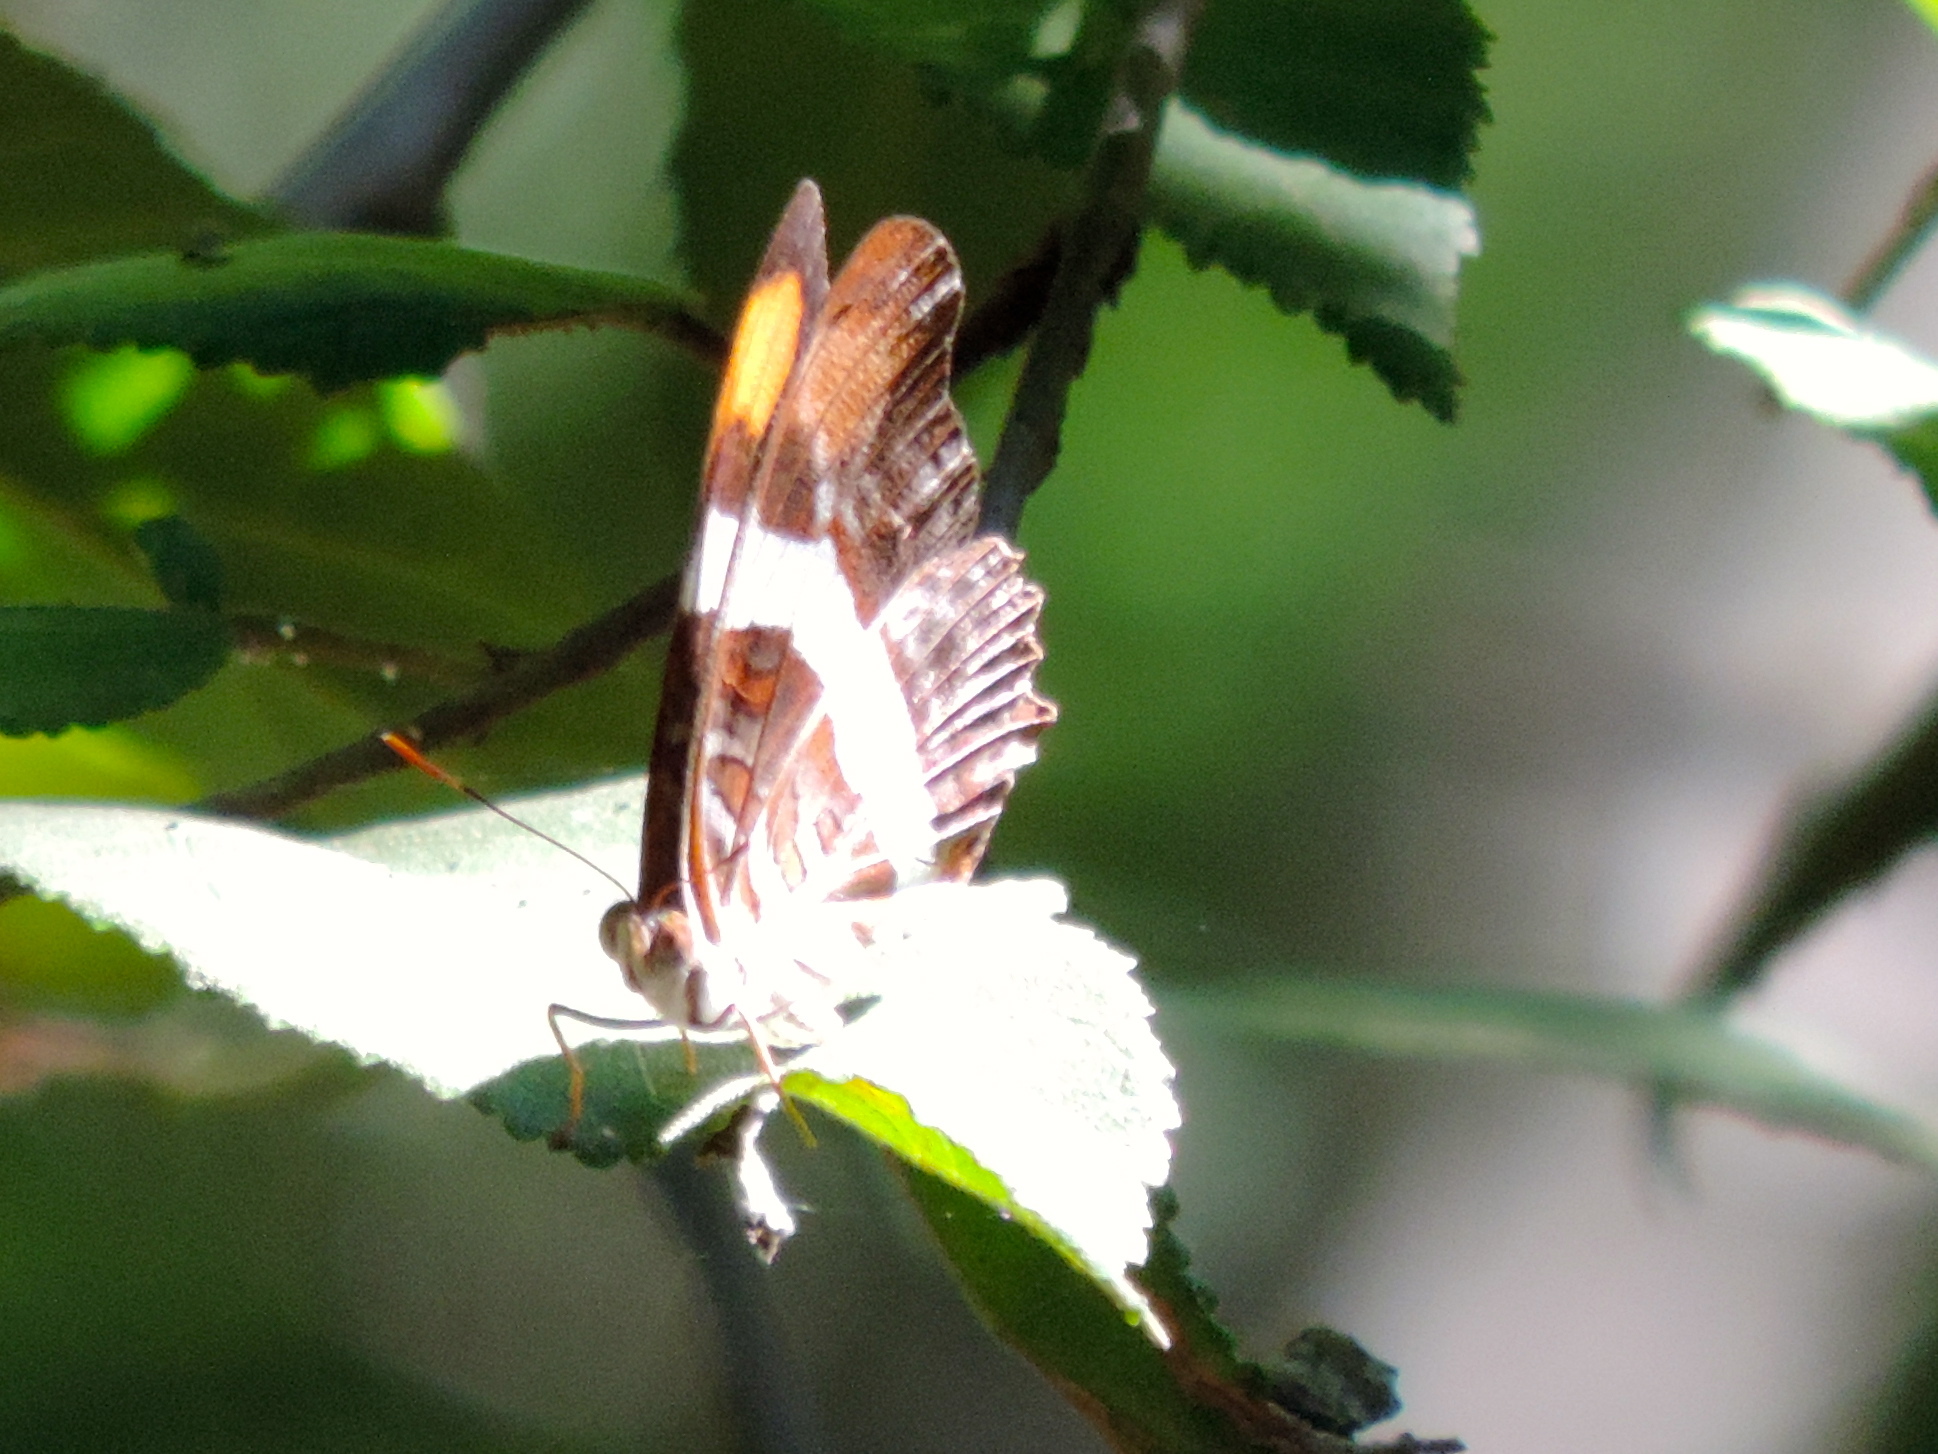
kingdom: Animalia
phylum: Arthropoda
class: Insecta
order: Lepidoptera
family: Nymphalidae
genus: Limenitis
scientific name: Limenitis fessonia
